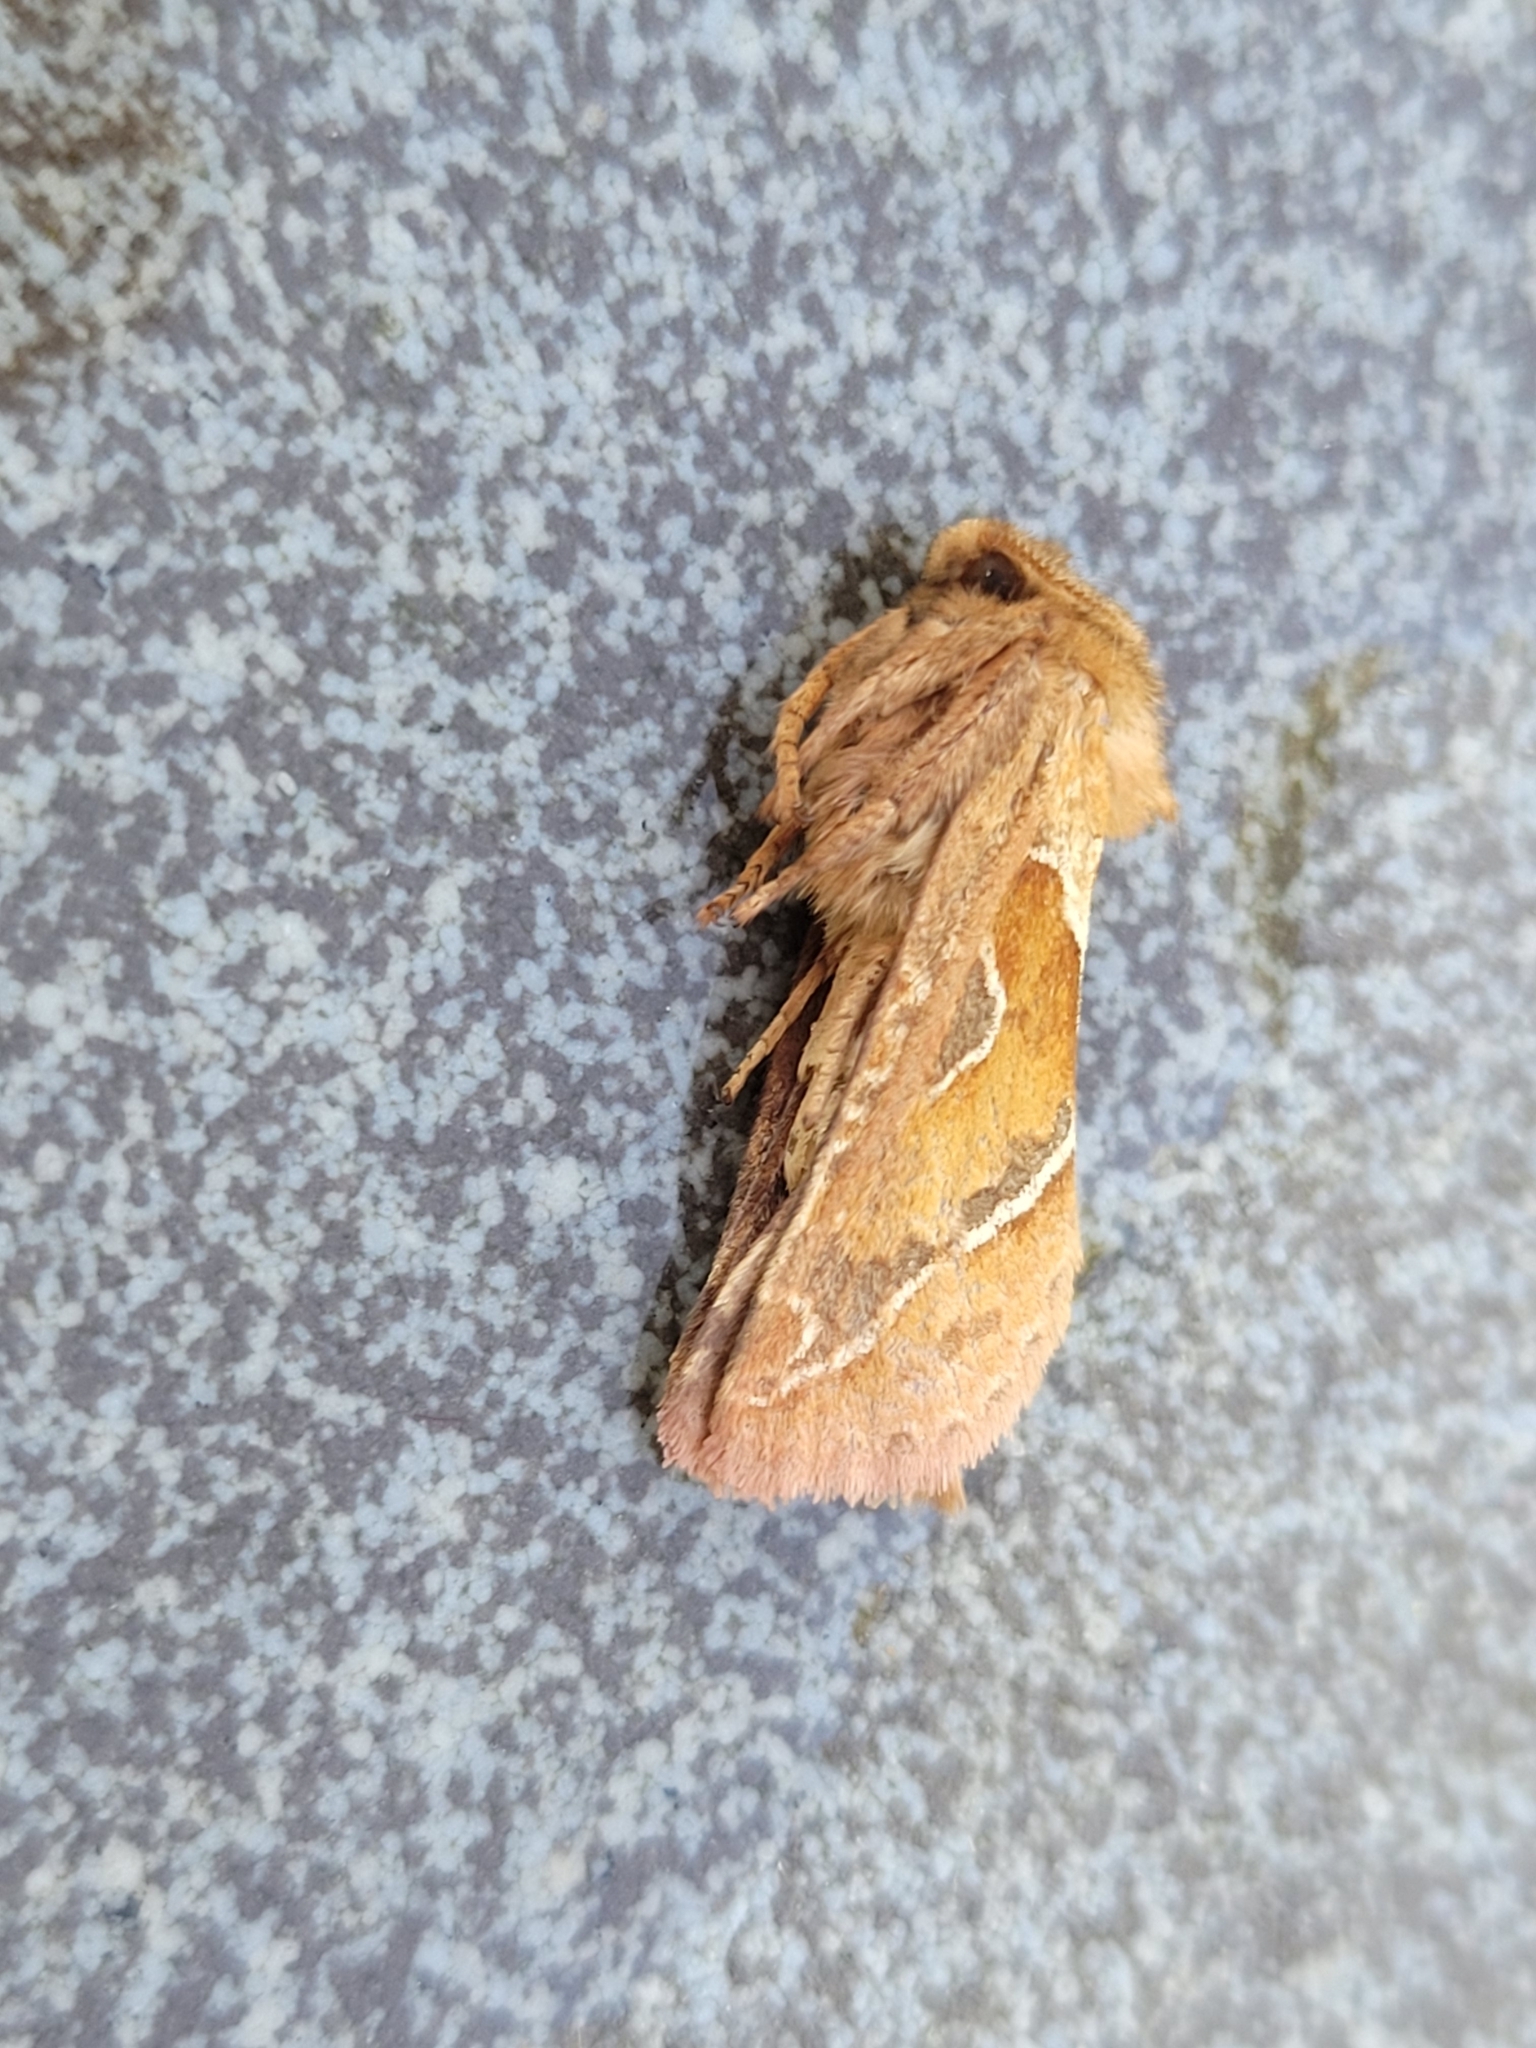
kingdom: Animalia
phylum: Arthropoda
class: Insecta
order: Lepidoptera
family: Hepialidae
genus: Triodia
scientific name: Triodia sylvina
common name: Orange swift
